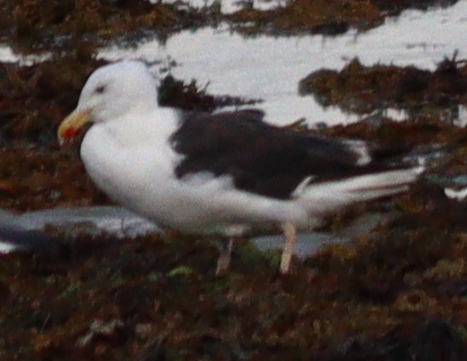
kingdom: Animalia
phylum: Chordata
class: Aves
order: Charadriiformes
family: Laridae
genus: Larus
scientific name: Larus marinus
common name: Great black-backed gull
